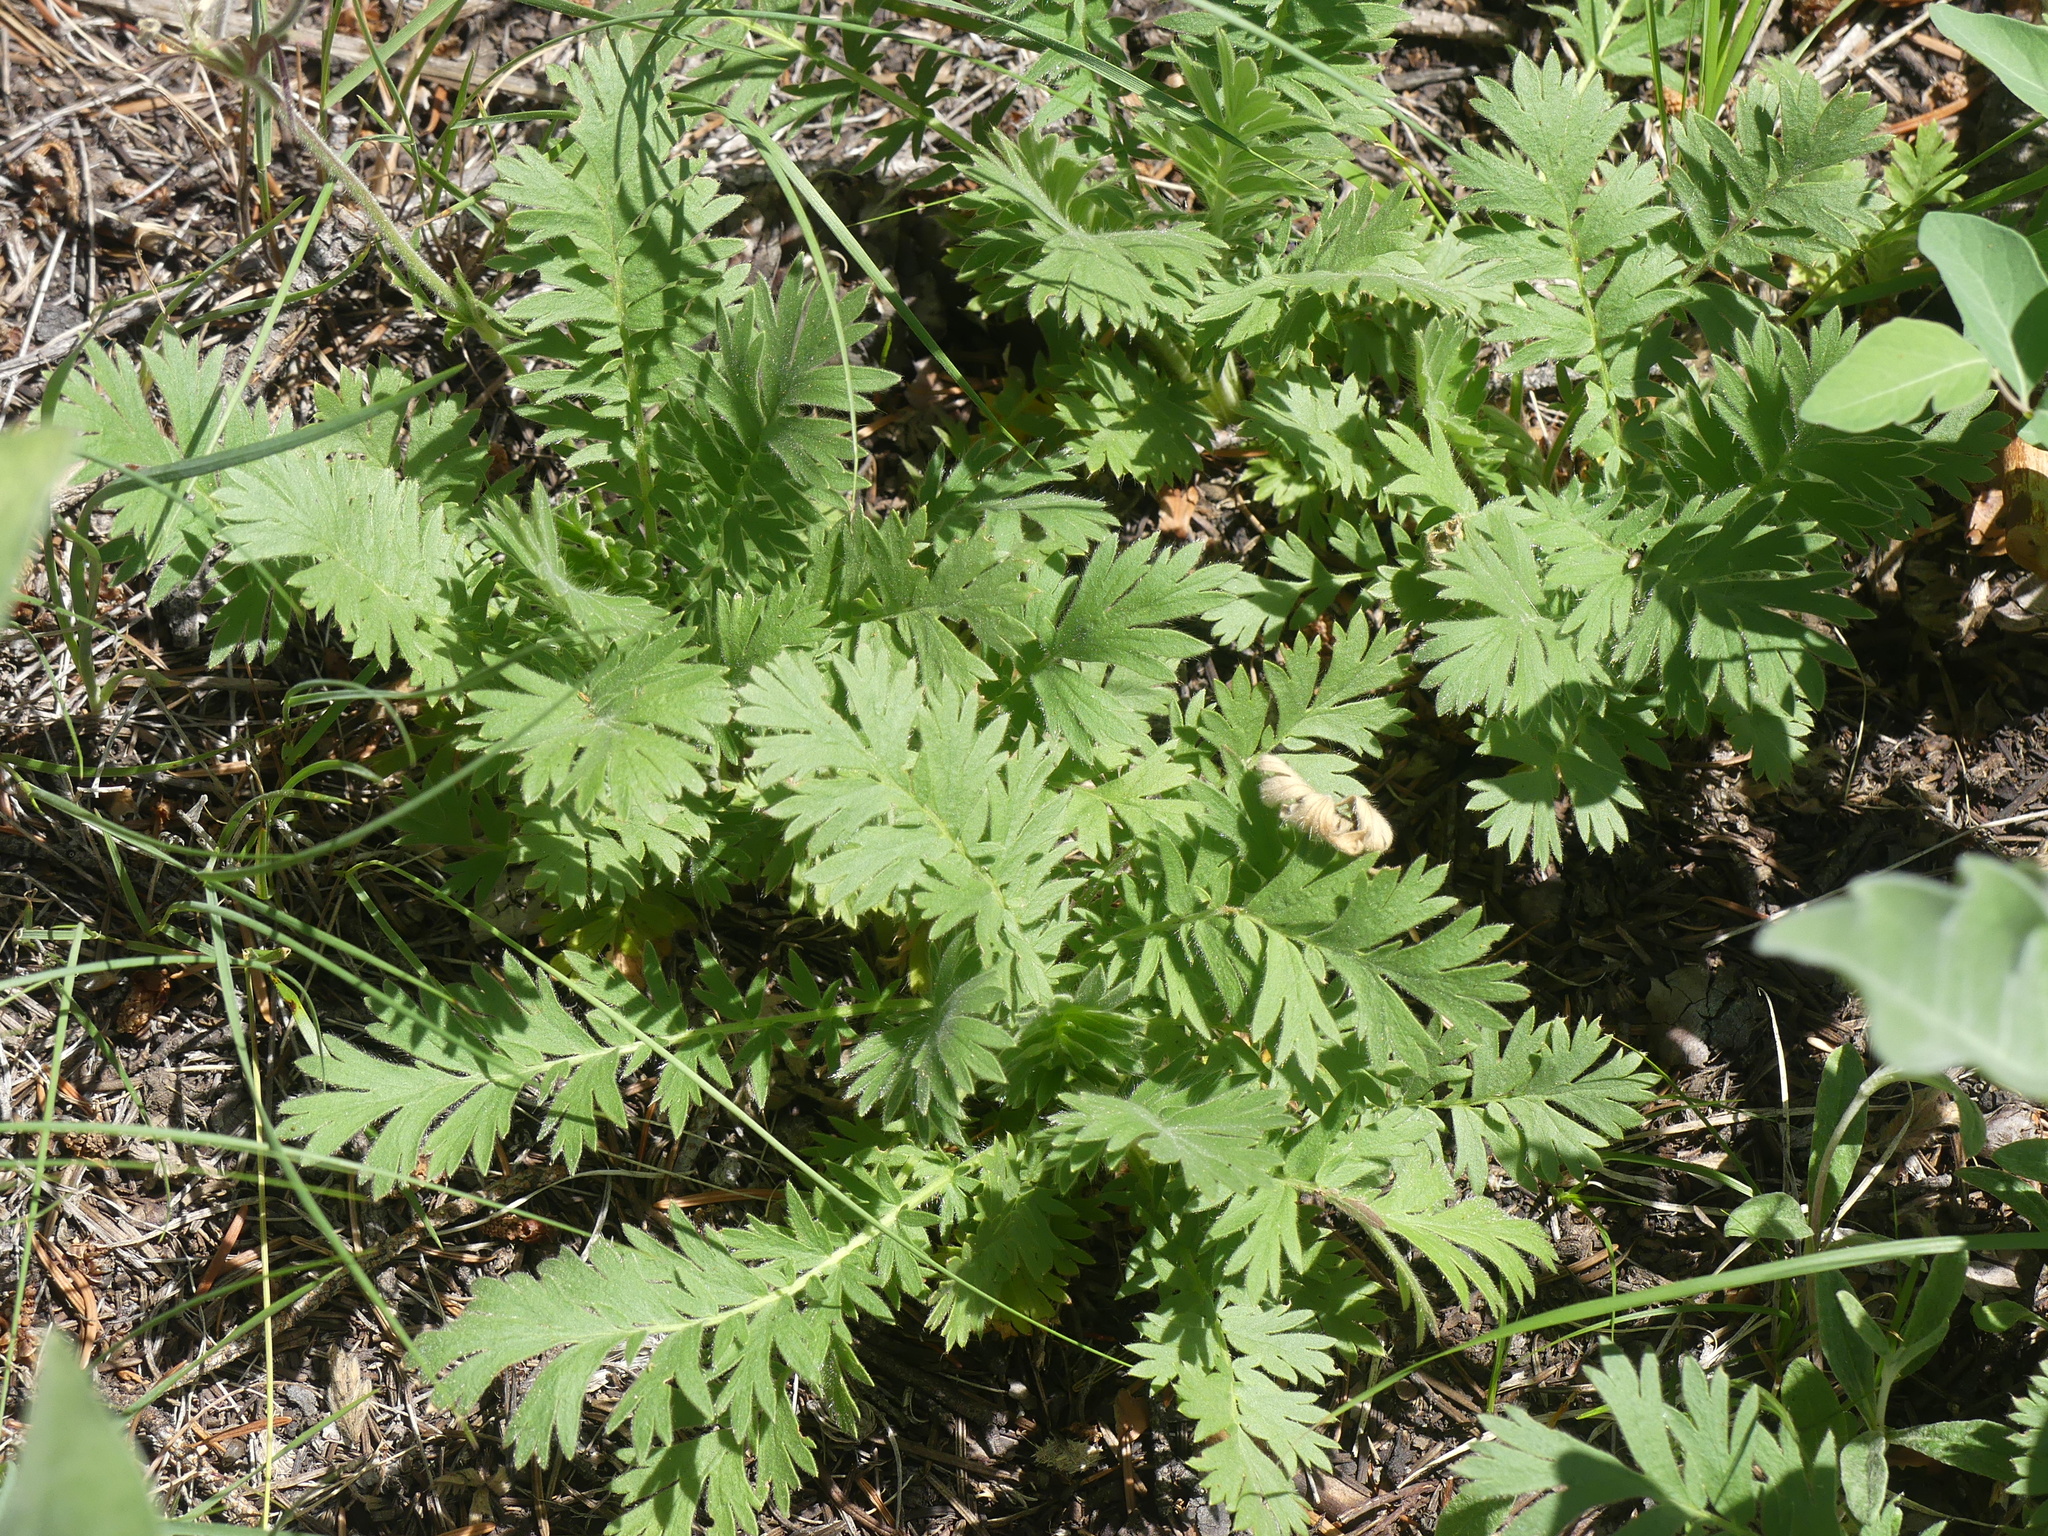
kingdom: Plantae
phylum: Tracheophyta
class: Magnoliopsida
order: Rosales
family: Rosaceae
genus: Geum
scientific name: Geum triflorum
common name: Old man's whiskers
